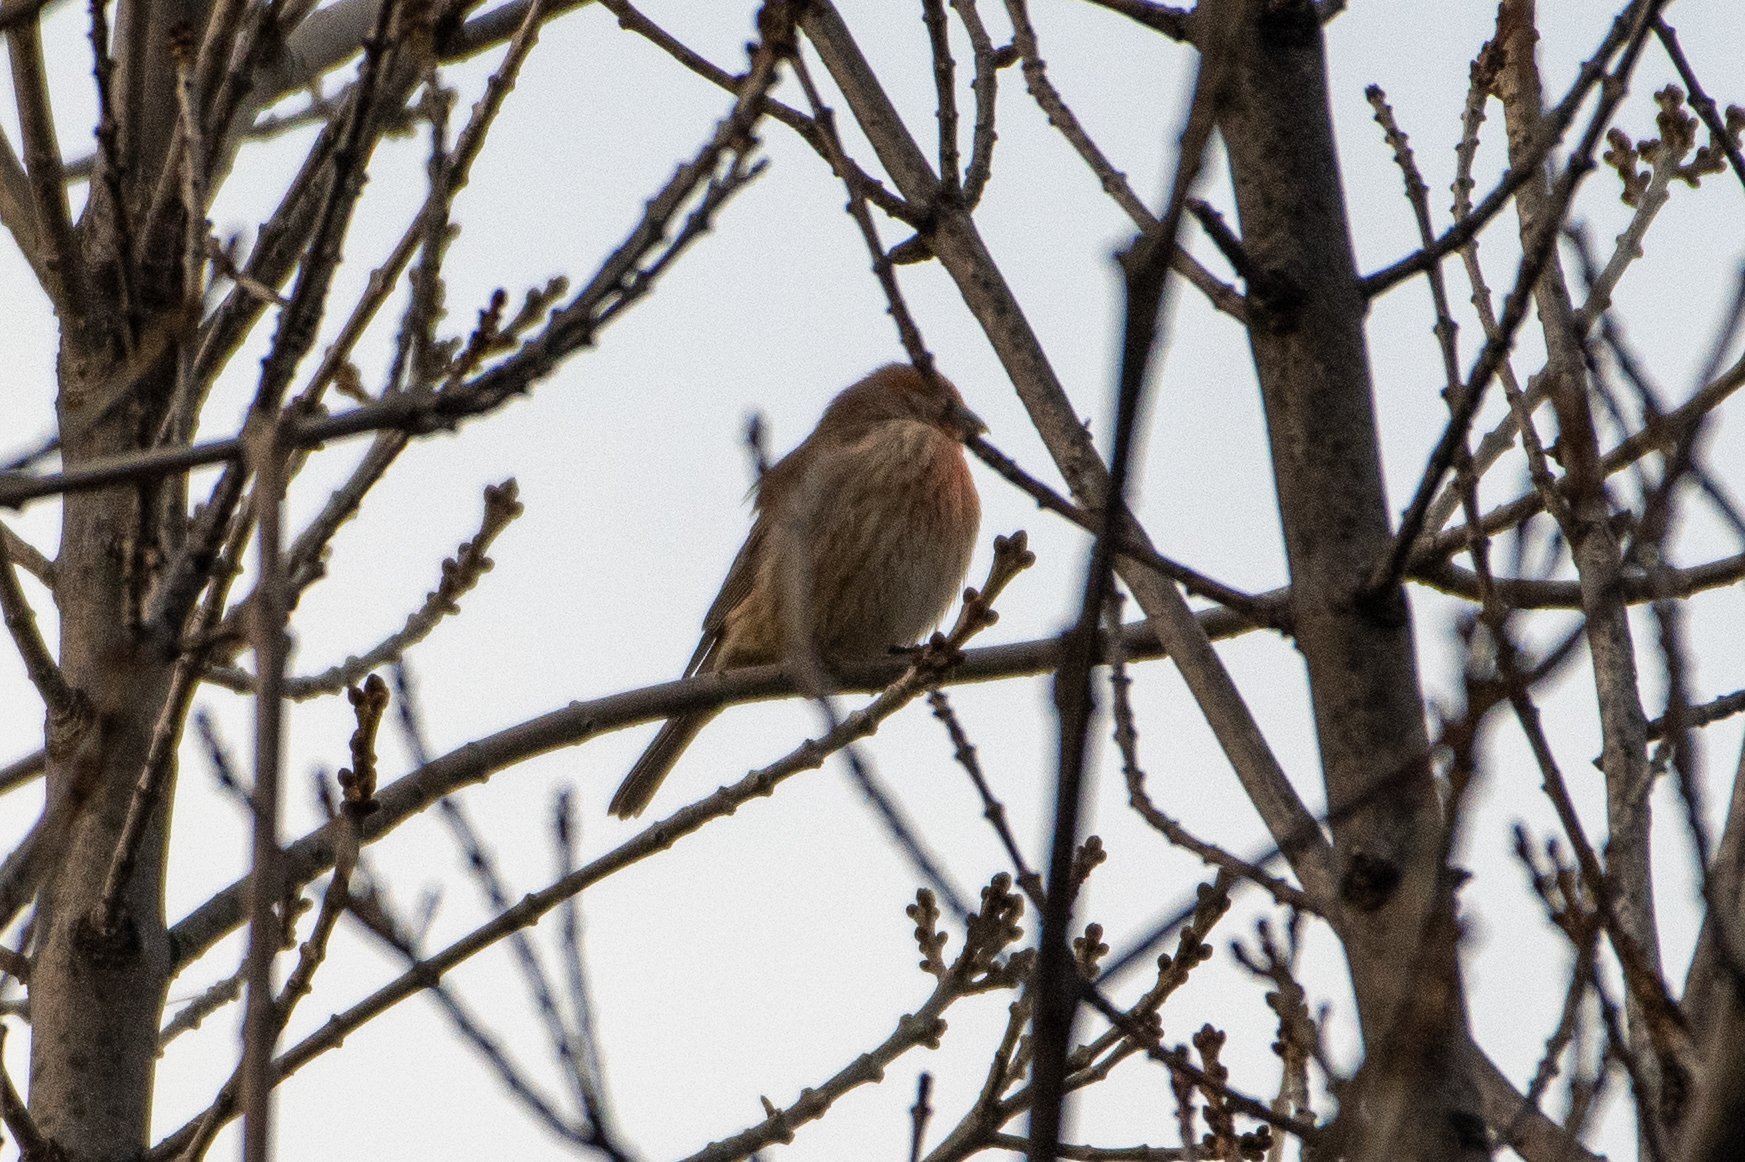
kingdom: Animalia
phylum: Chordata
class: Aves
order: Passeriformes
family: Fringillidae
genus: Haemorhous
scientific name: Haemorhous mexicanus
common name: House finch
